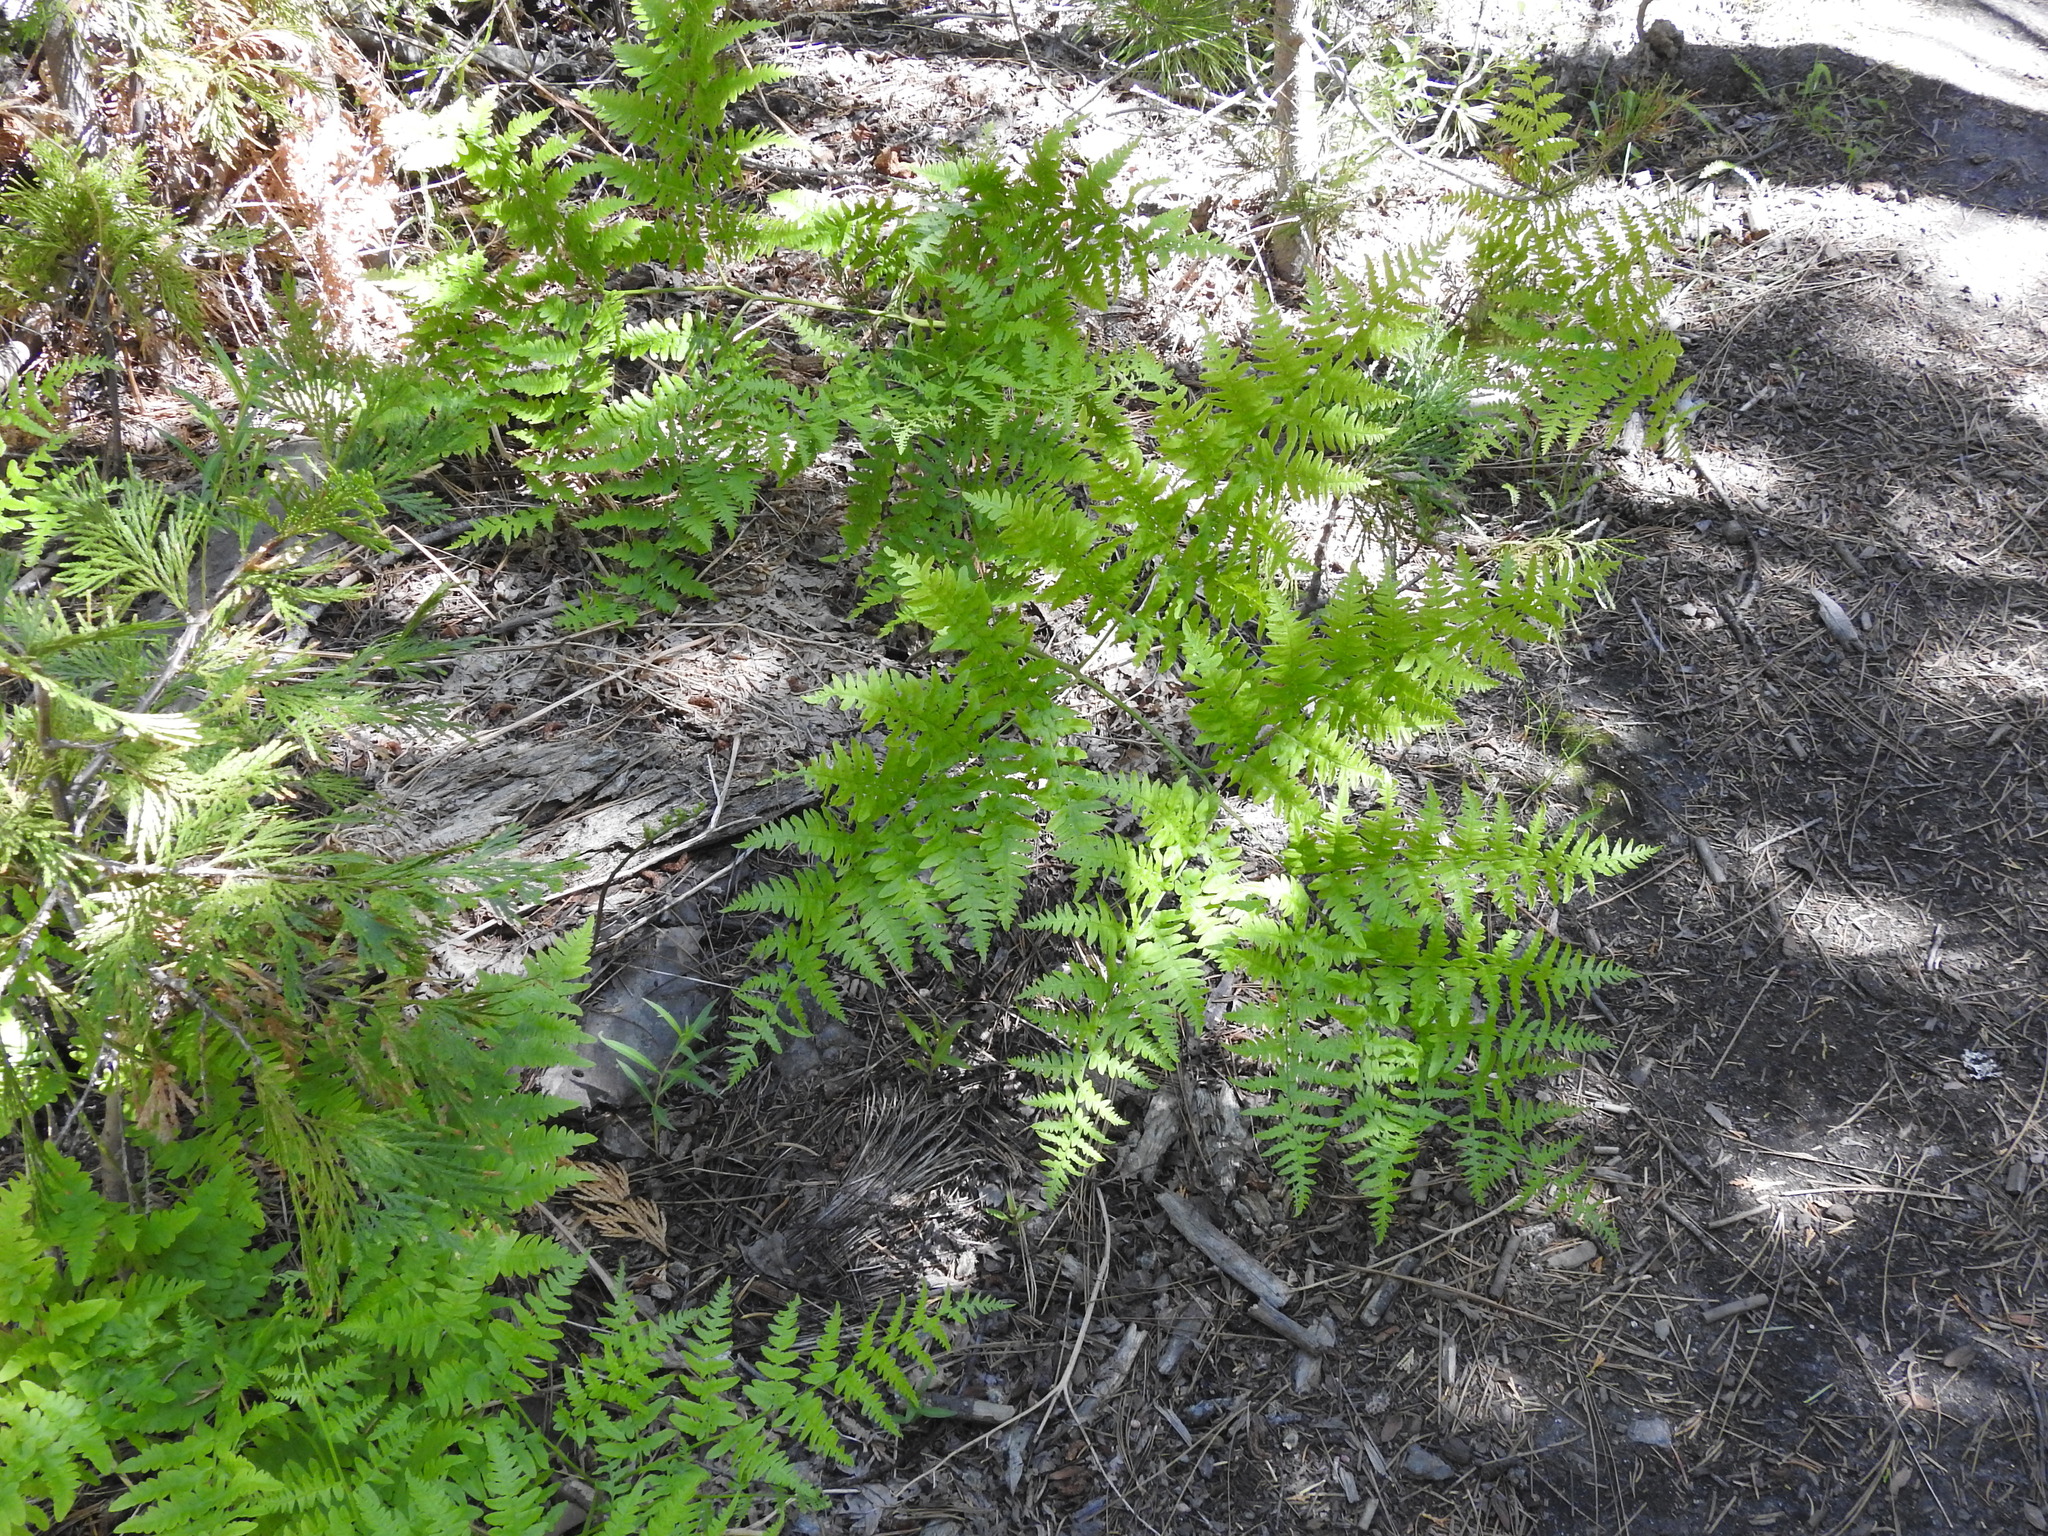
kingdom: Plantae
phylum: Tracheophyta
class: Polypodiopsida
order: Polypodiales
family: Dennstaedtiaceae
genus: Pteridium
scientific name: Pteridium aquilinum
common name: Bracken
